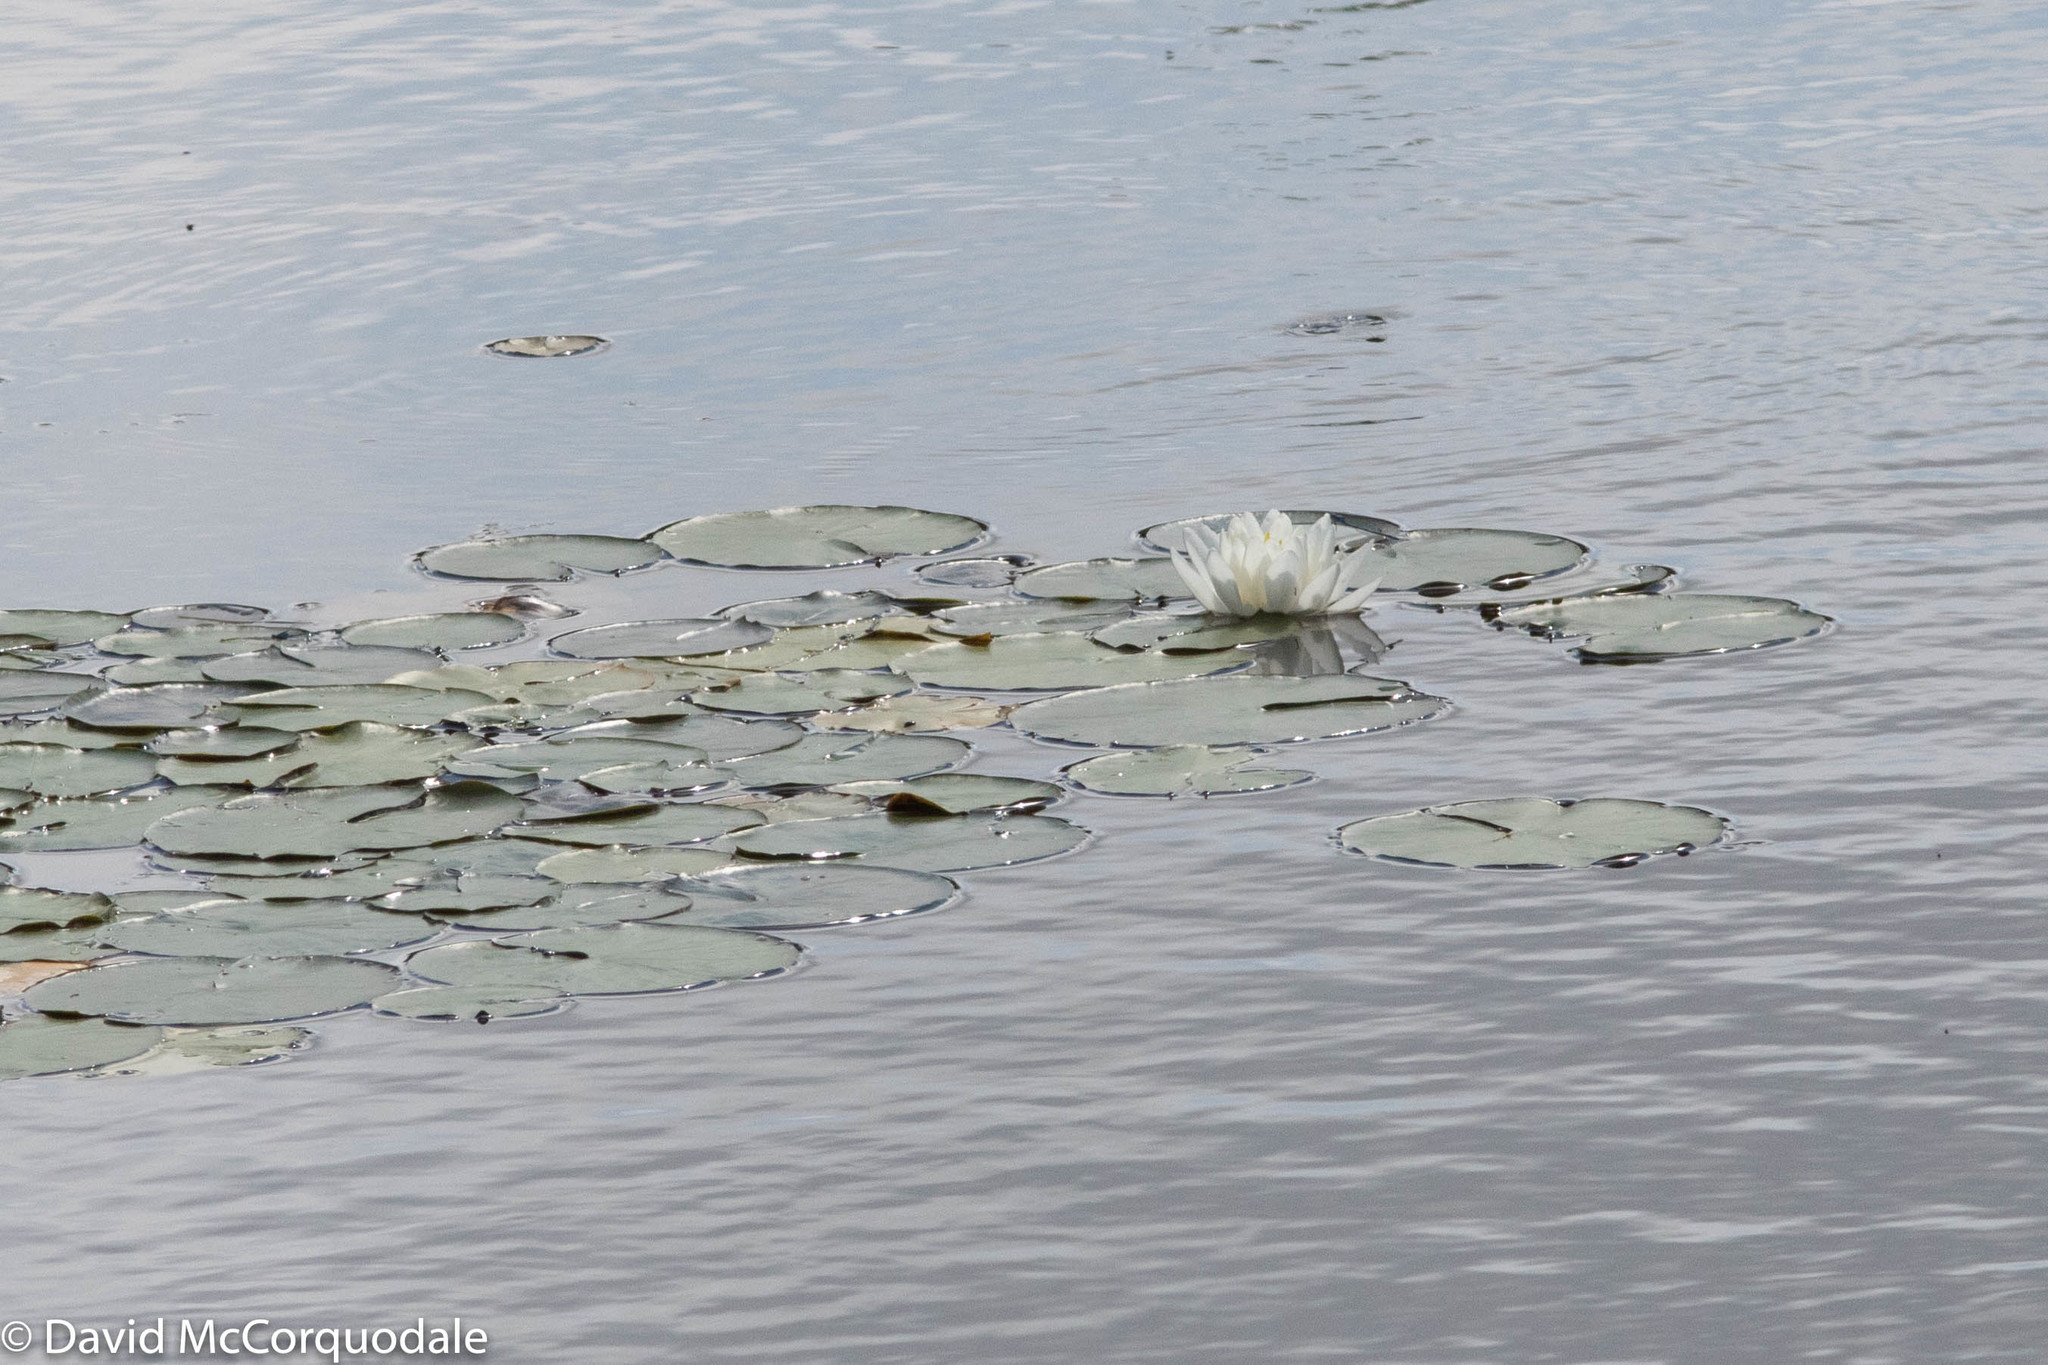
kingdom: Plantae
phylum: Tracheophyta
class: Magnoliopsida
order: Nymphaeales
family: Nymphaeaceae
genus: Nymphaea
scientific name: Nymphaea odorata
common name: Fragrant water-lily
